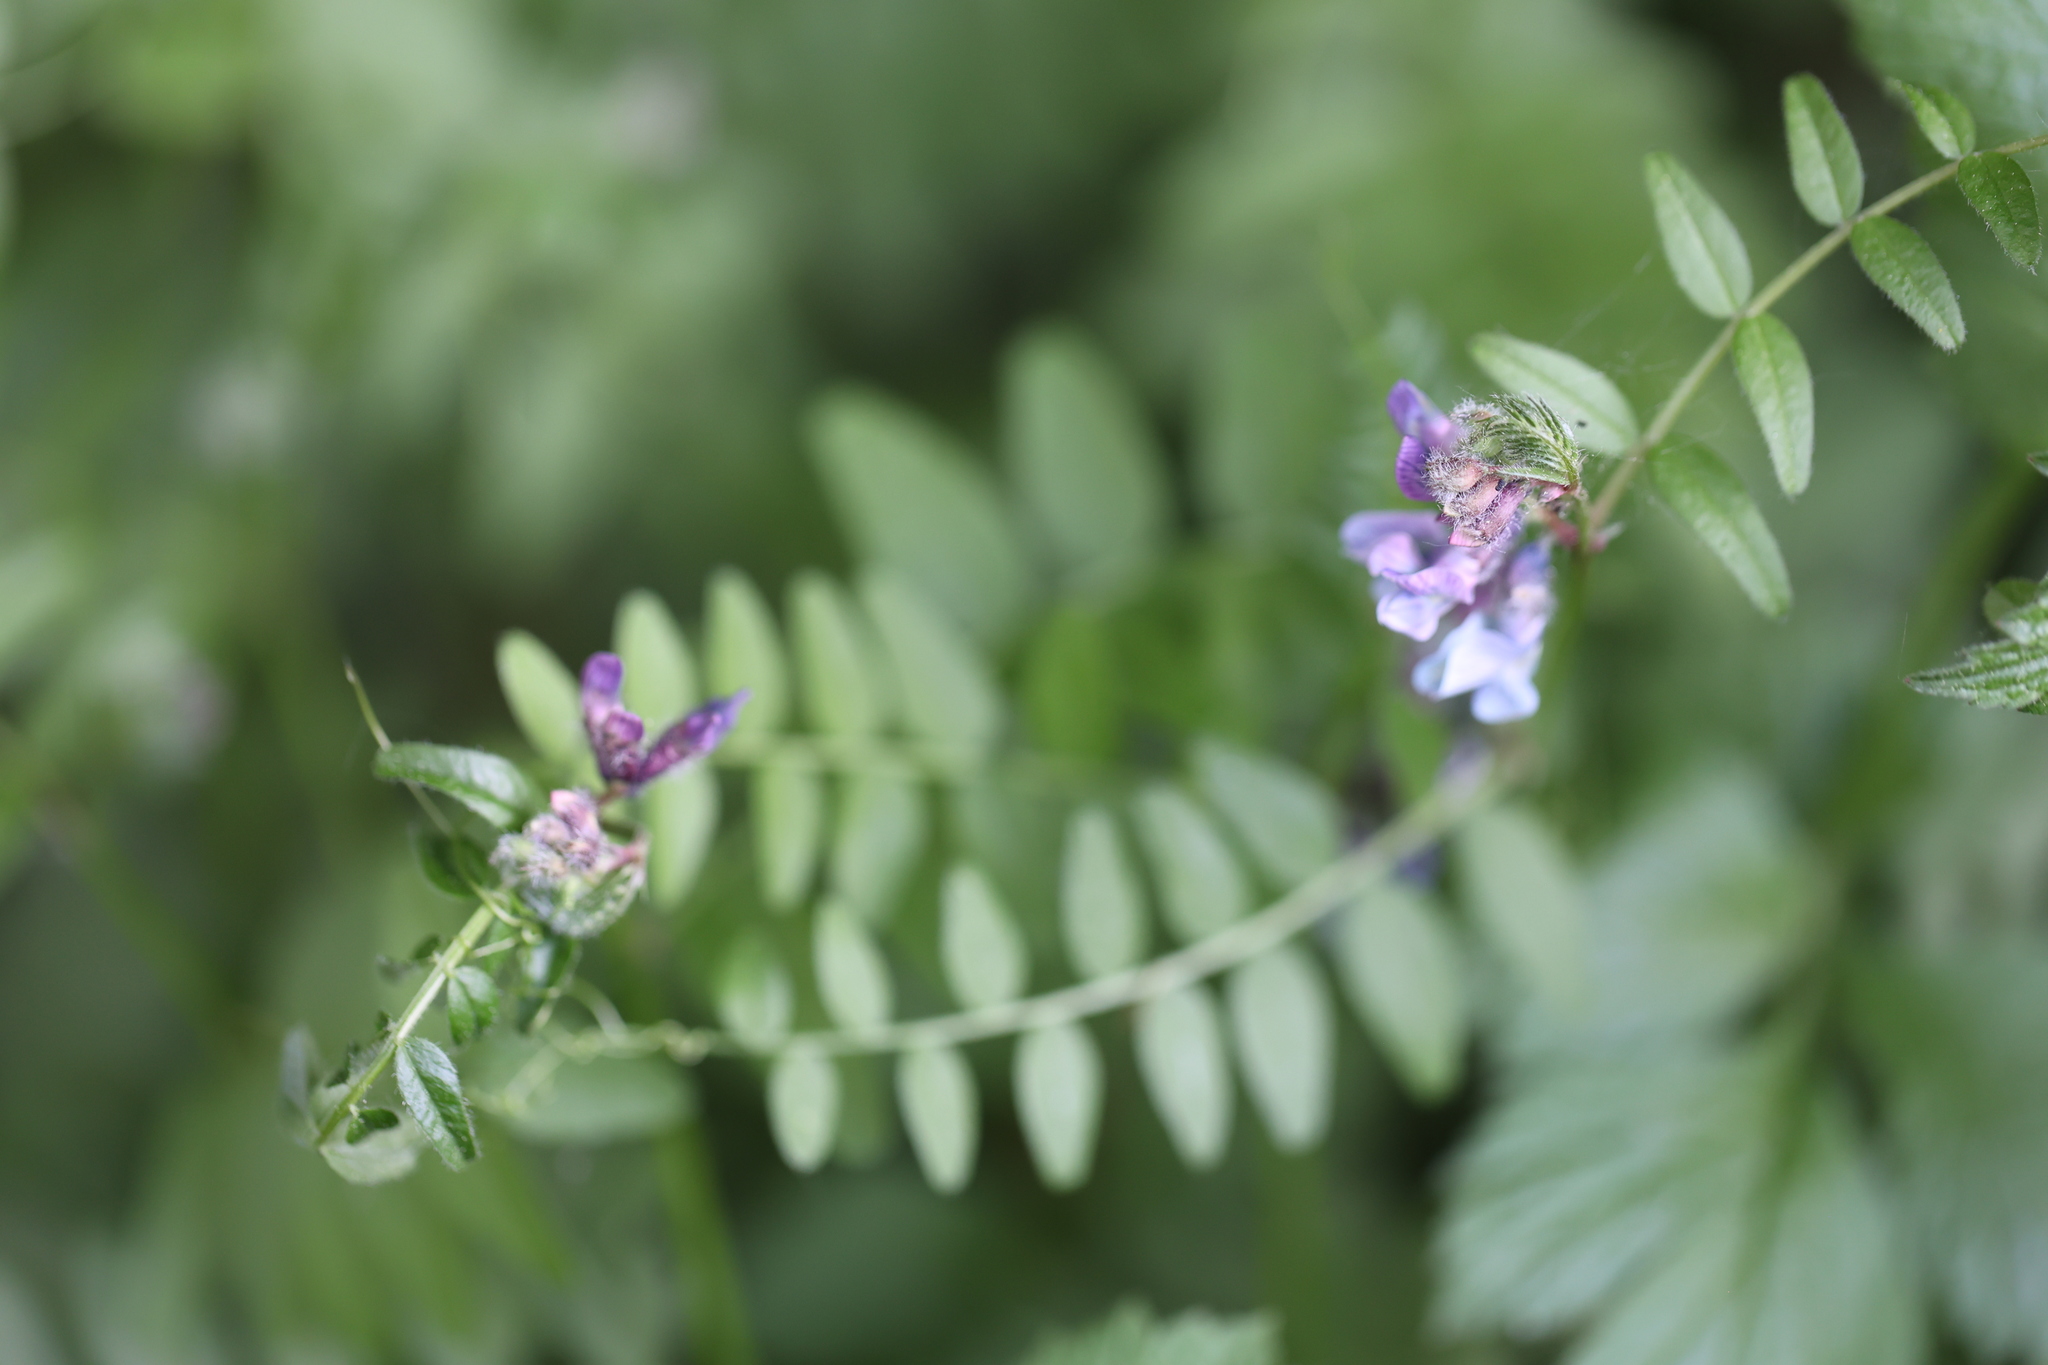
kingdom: Plantae
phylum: Tracheophyta
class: Magnoliopsida
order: Fabales
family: Fabaceae
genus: Vicia
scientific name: Vicia sepium
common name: Bush vetch
